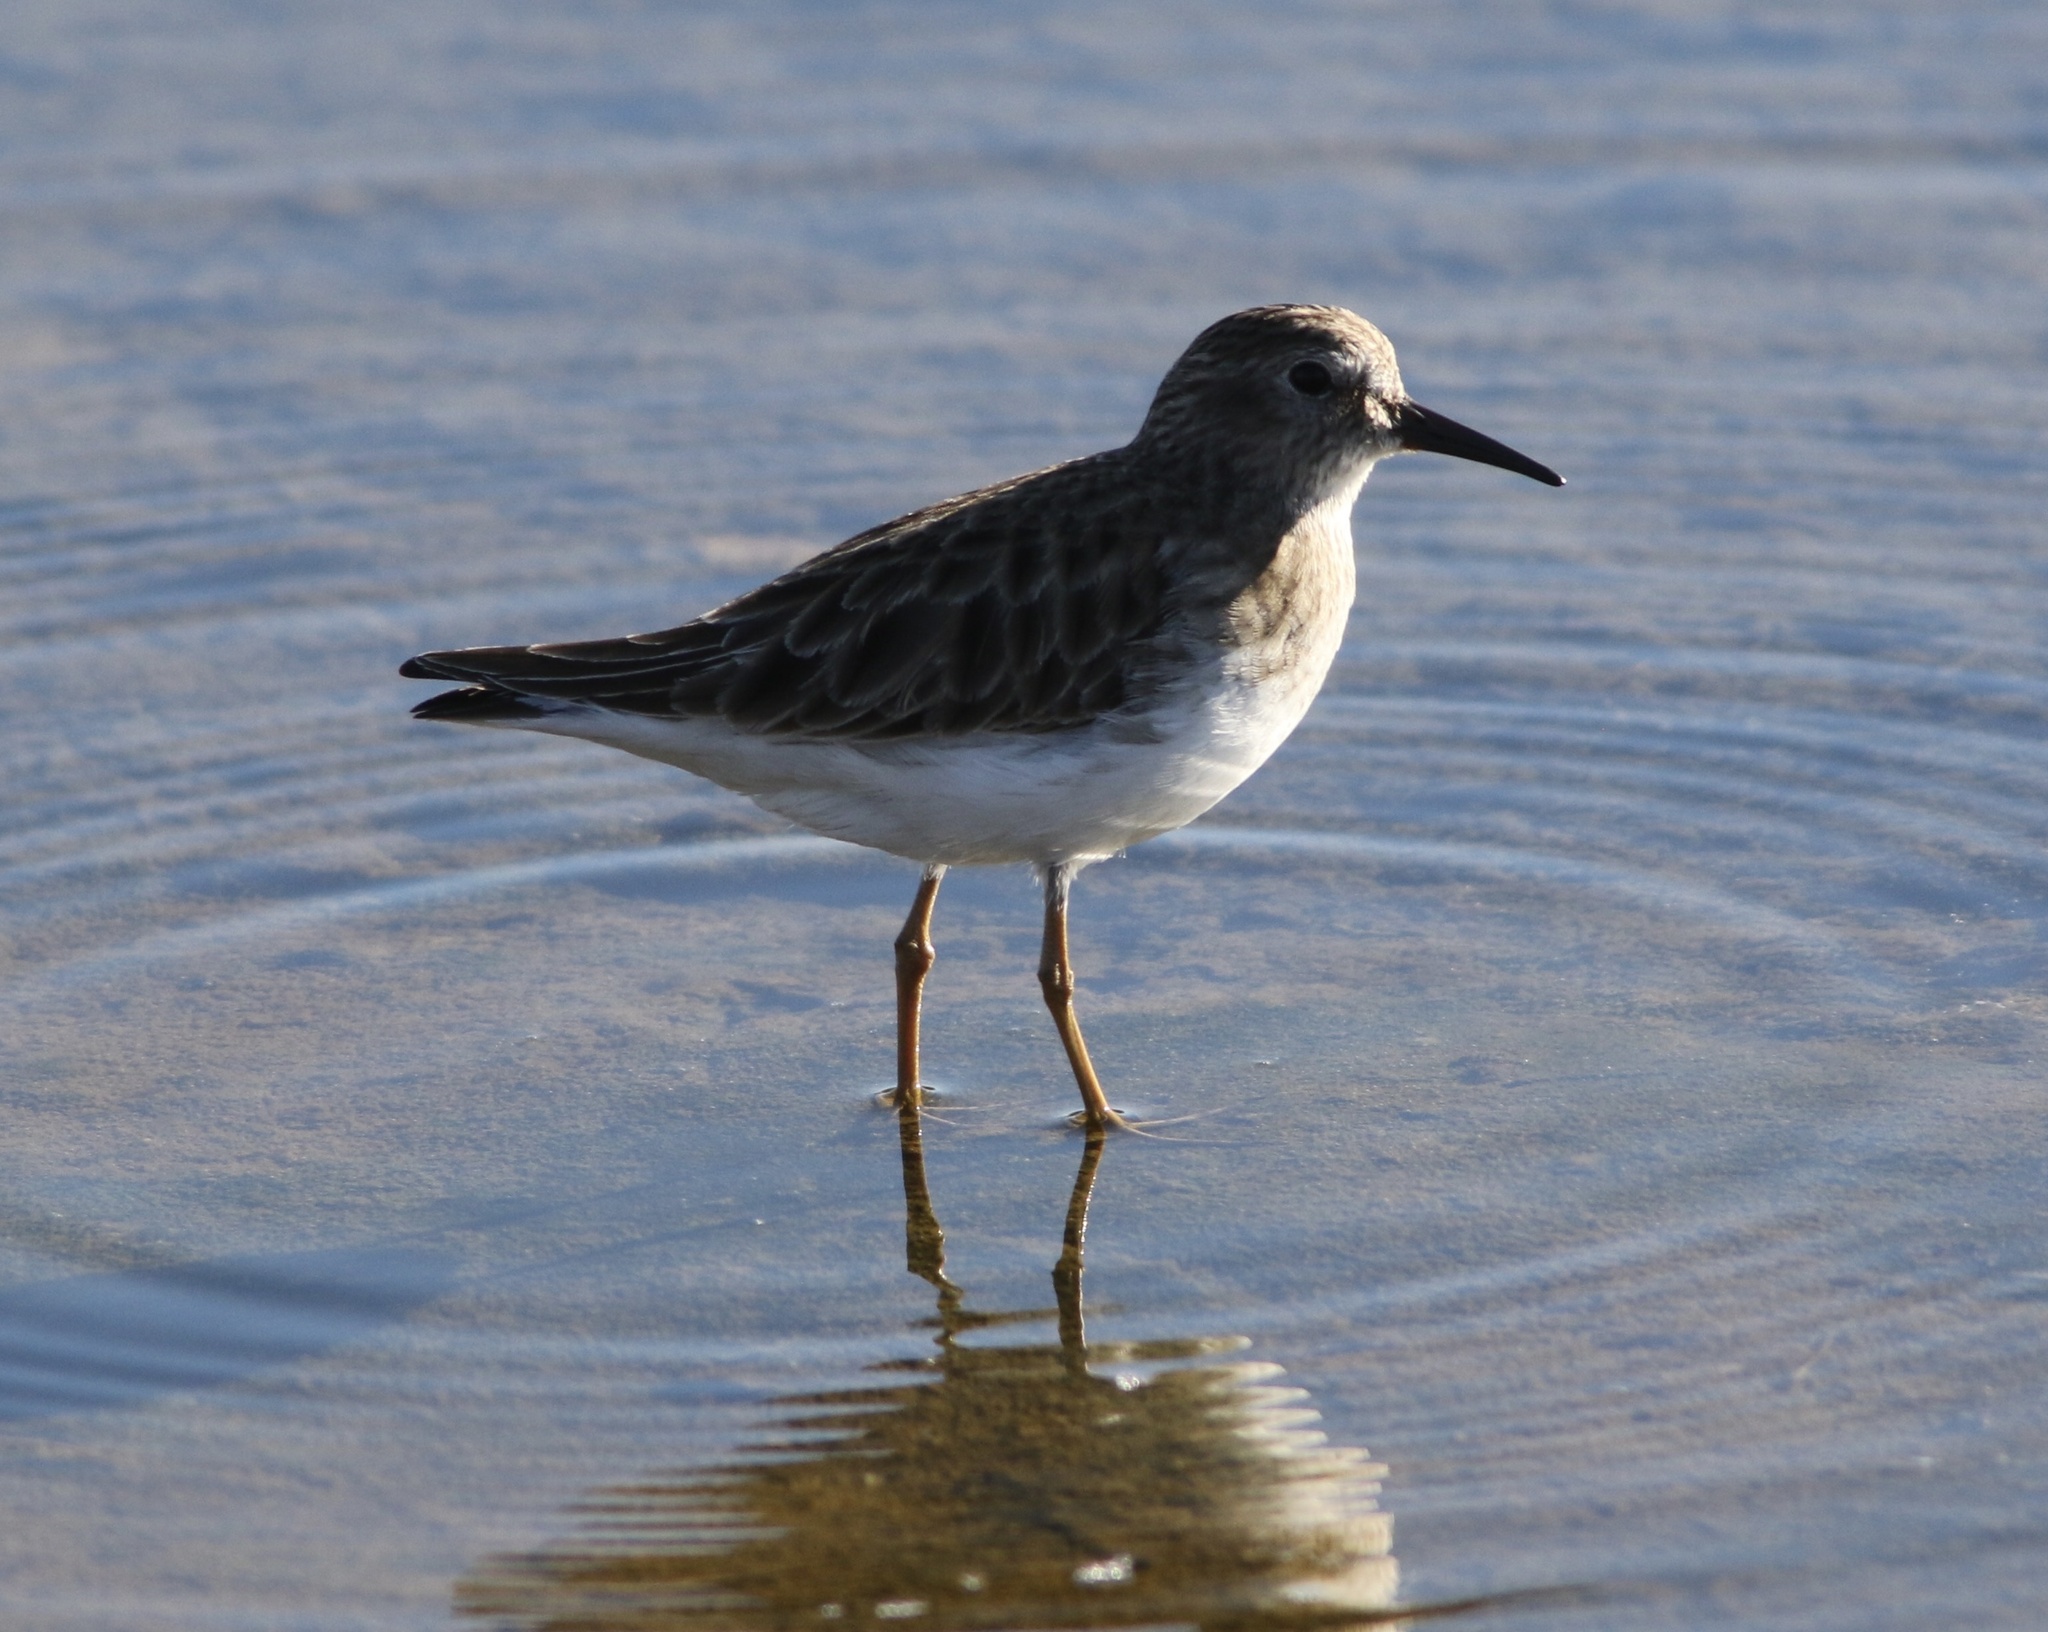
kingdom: Animalia
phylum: Chordata
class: Aves
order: Charadriiformes
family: Scolopacidae
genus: Calidris
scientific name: Calidris minutilla
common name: Least sandpiper
